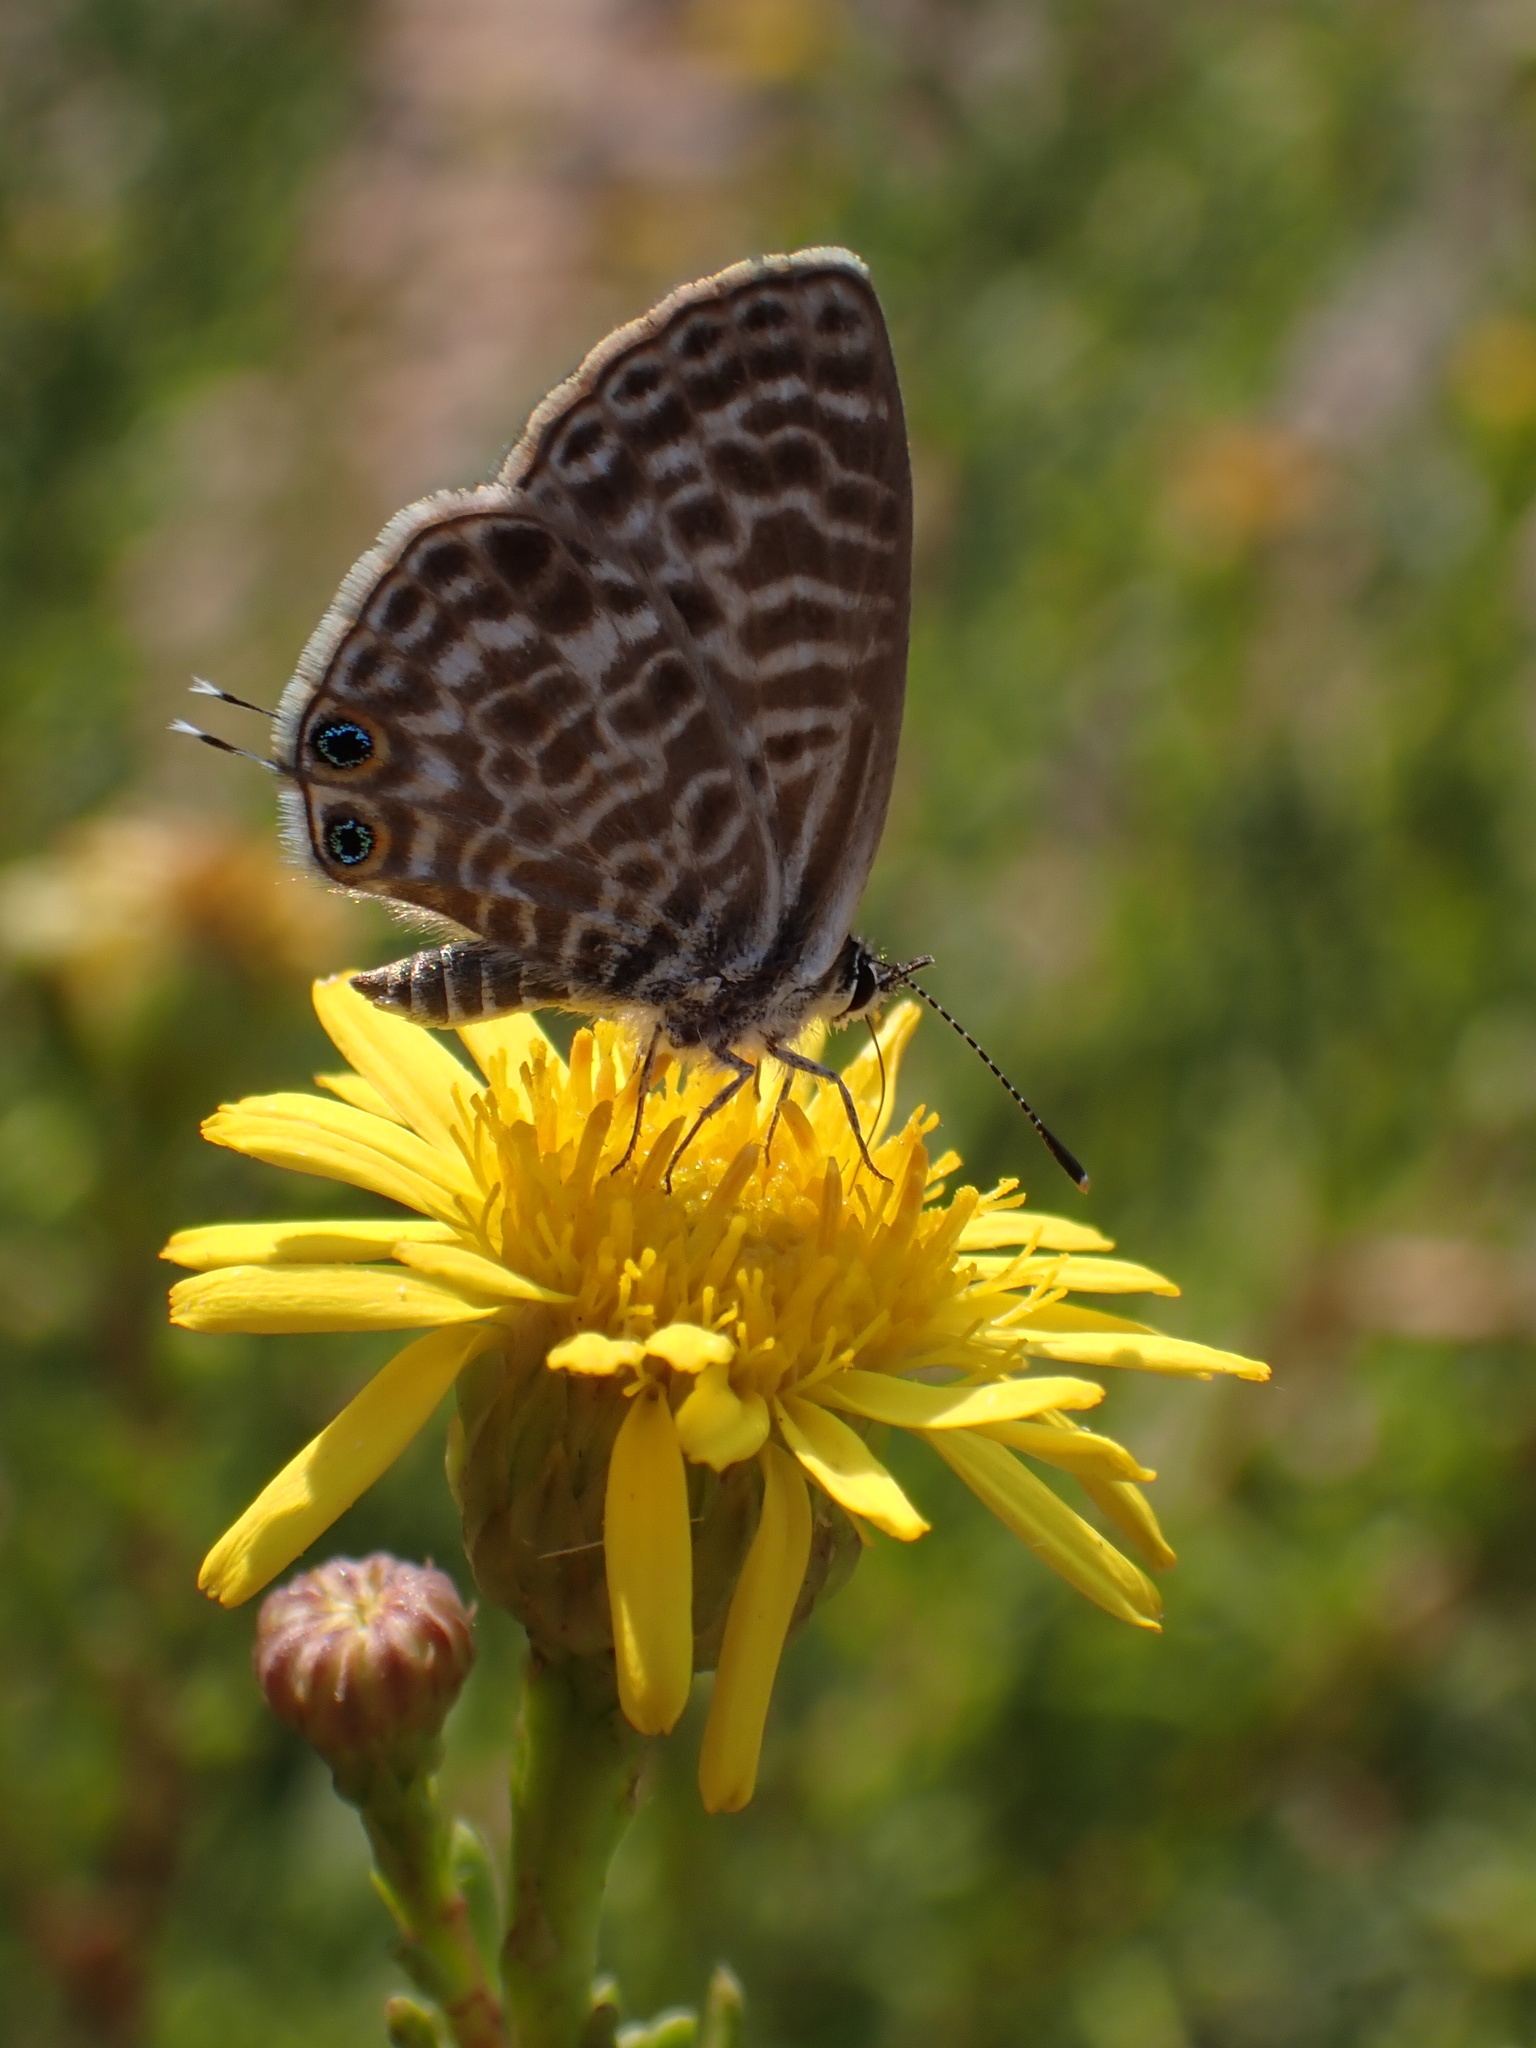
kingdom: Animalia
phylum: Arthropoda
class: Insecta
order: Lepidoptera
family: Lycaenidae
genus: Leptotes
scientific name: Leptotes pirithous
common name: Lang's short-tailed blue
